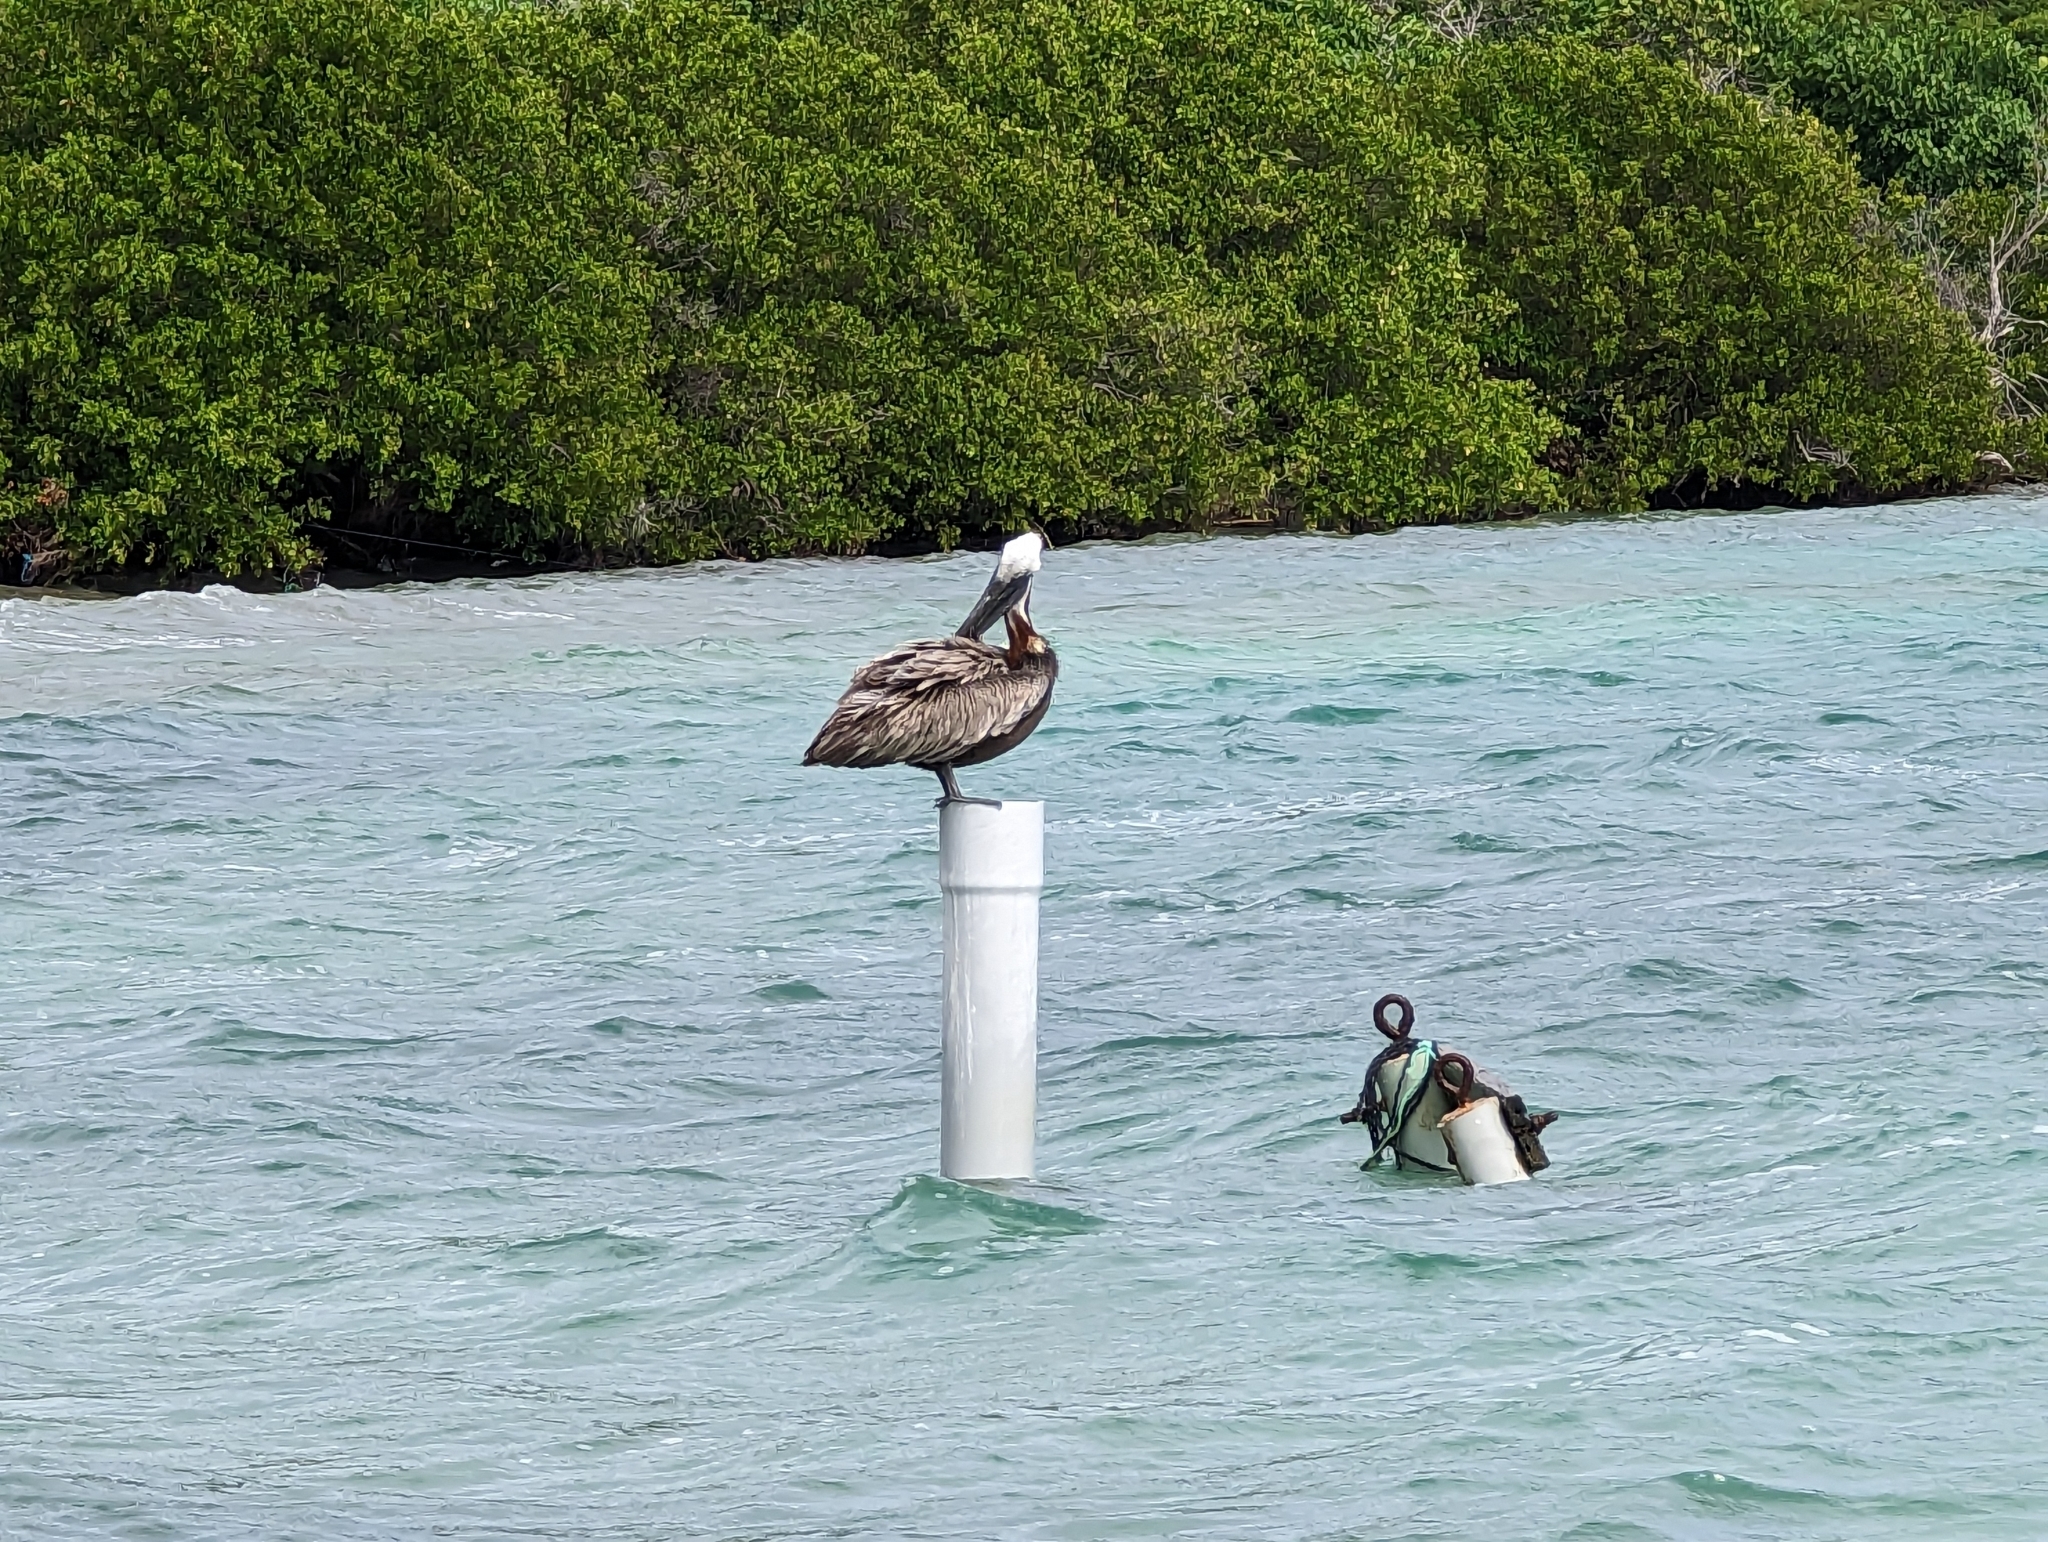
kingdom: Animalia
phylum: Chordata
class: Aves
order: Pelecaniformes
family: Pelecanidae
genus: Pelecanus
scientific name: Pelecanus occidentalis
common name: Brown pelican
